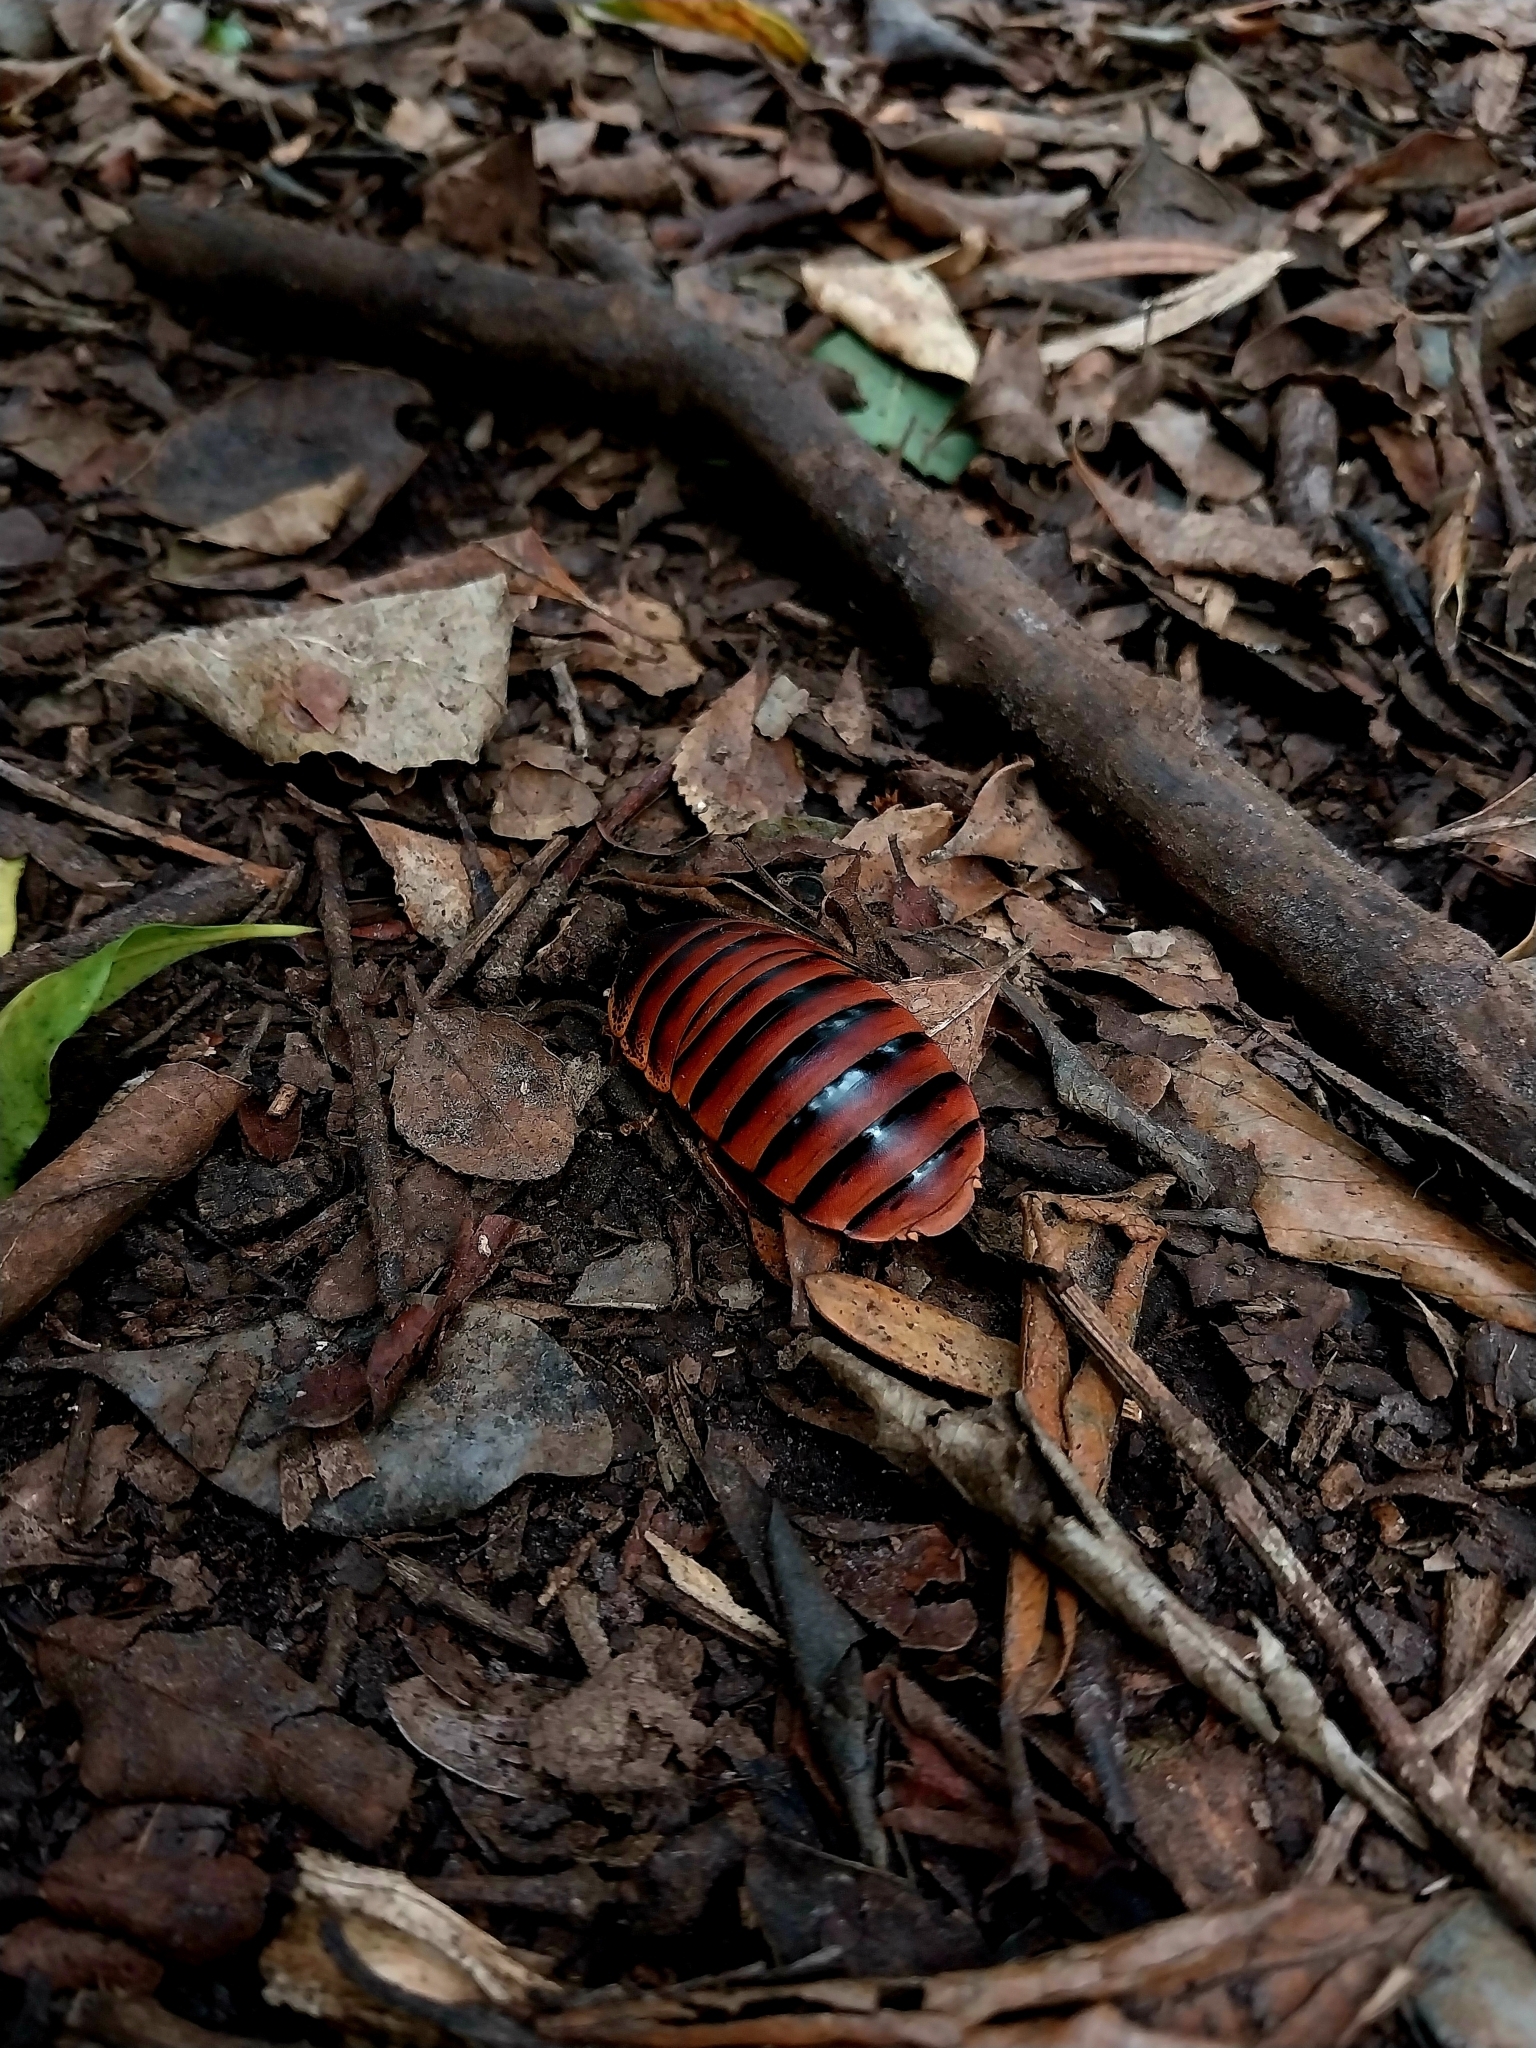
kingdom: Animalia
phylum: Arthropoda
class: Insecta
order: Blattodea
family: Blaberidae
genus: Aptera
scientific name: Aptera fusca
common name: Cape mountain cockroach
